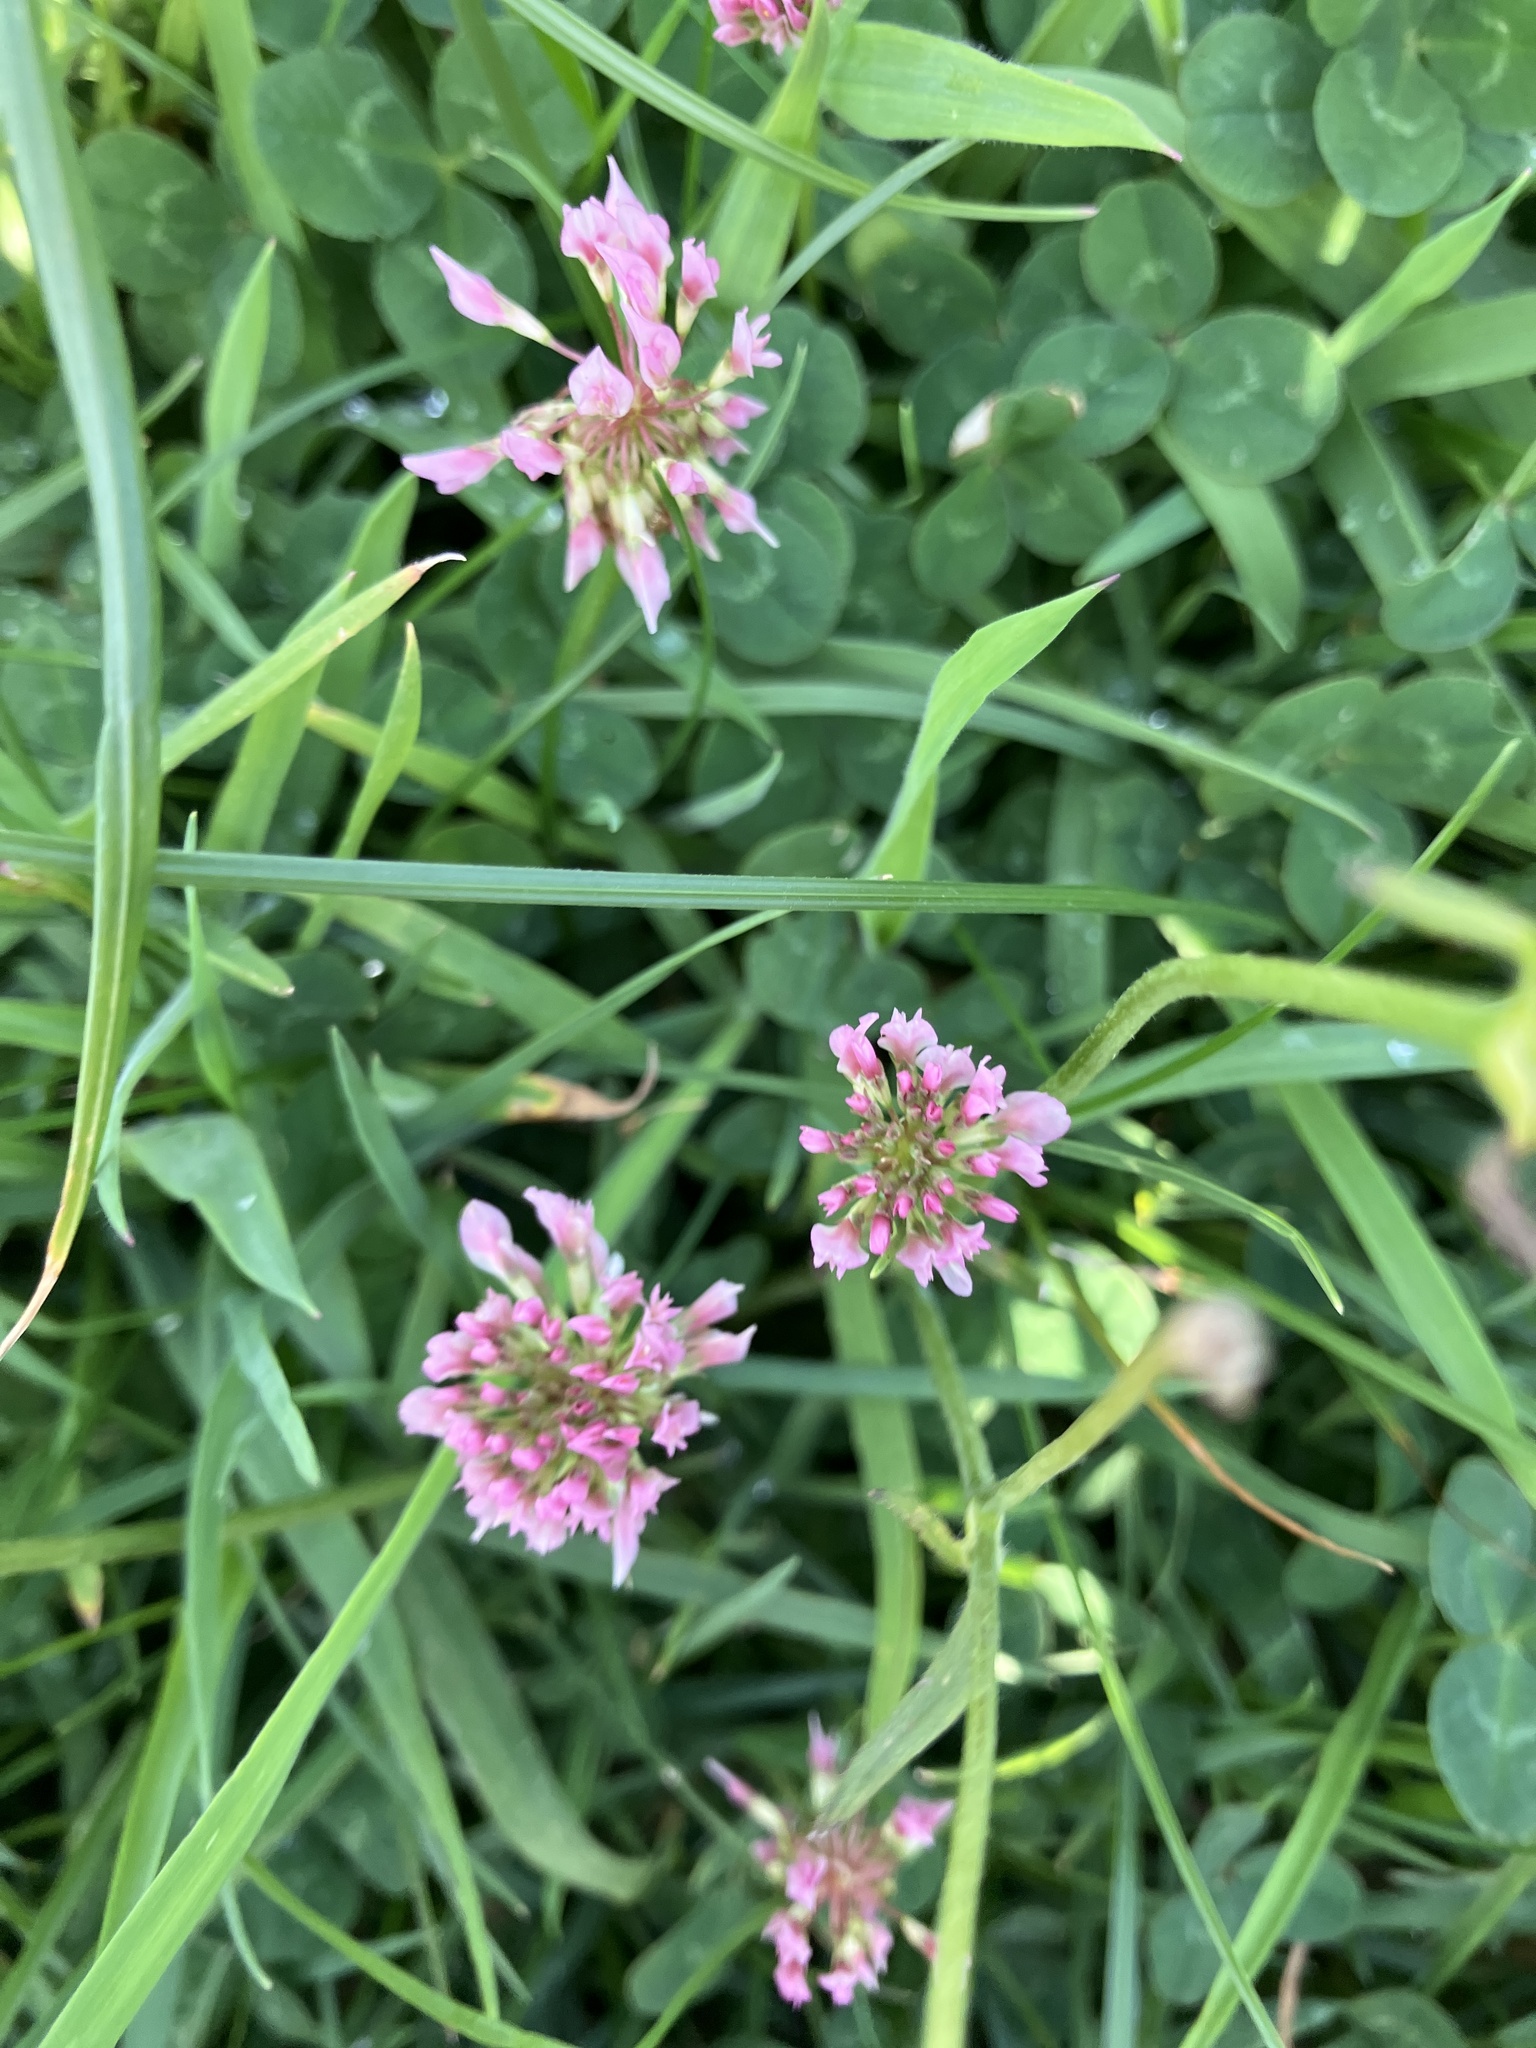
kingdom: Plantae
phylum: Tracheophyta
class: Magnoliopsida
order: Fabales
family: Fabaceae
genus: Trifolium
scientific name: Trifolium pratense
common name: Red clover
